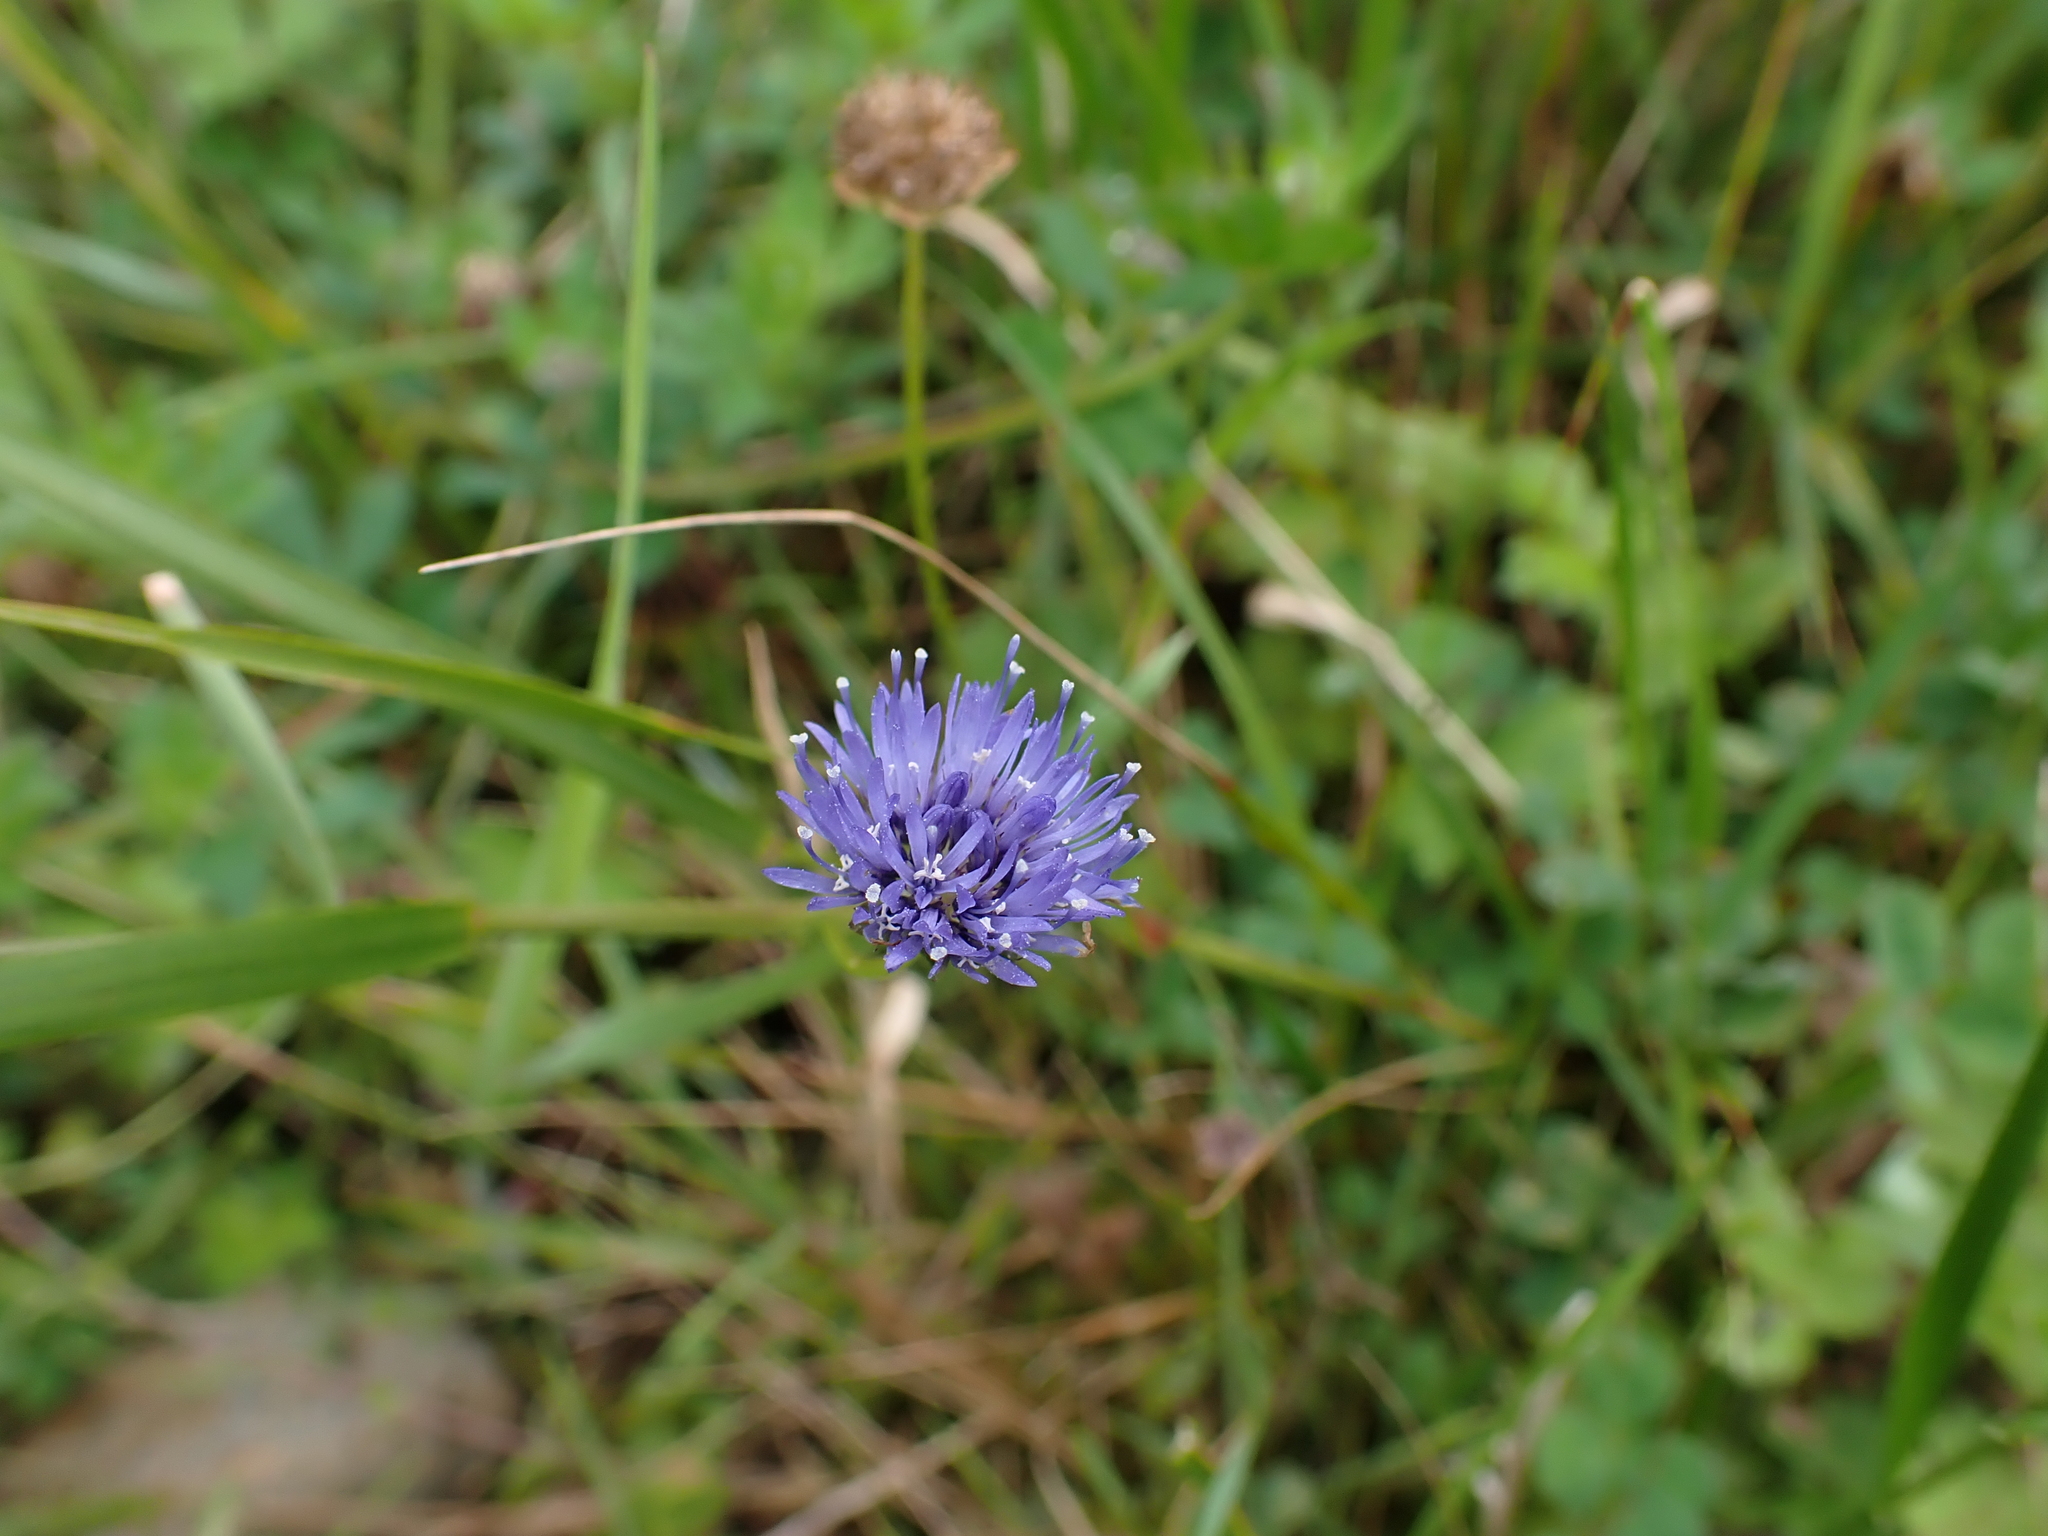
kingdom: Plantae
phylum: Tracheophyta
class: Magnoliopsida
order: Asterales
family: Campanulaceae
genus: Jasione
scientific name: Jasione montana
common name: Sheep's-bit
